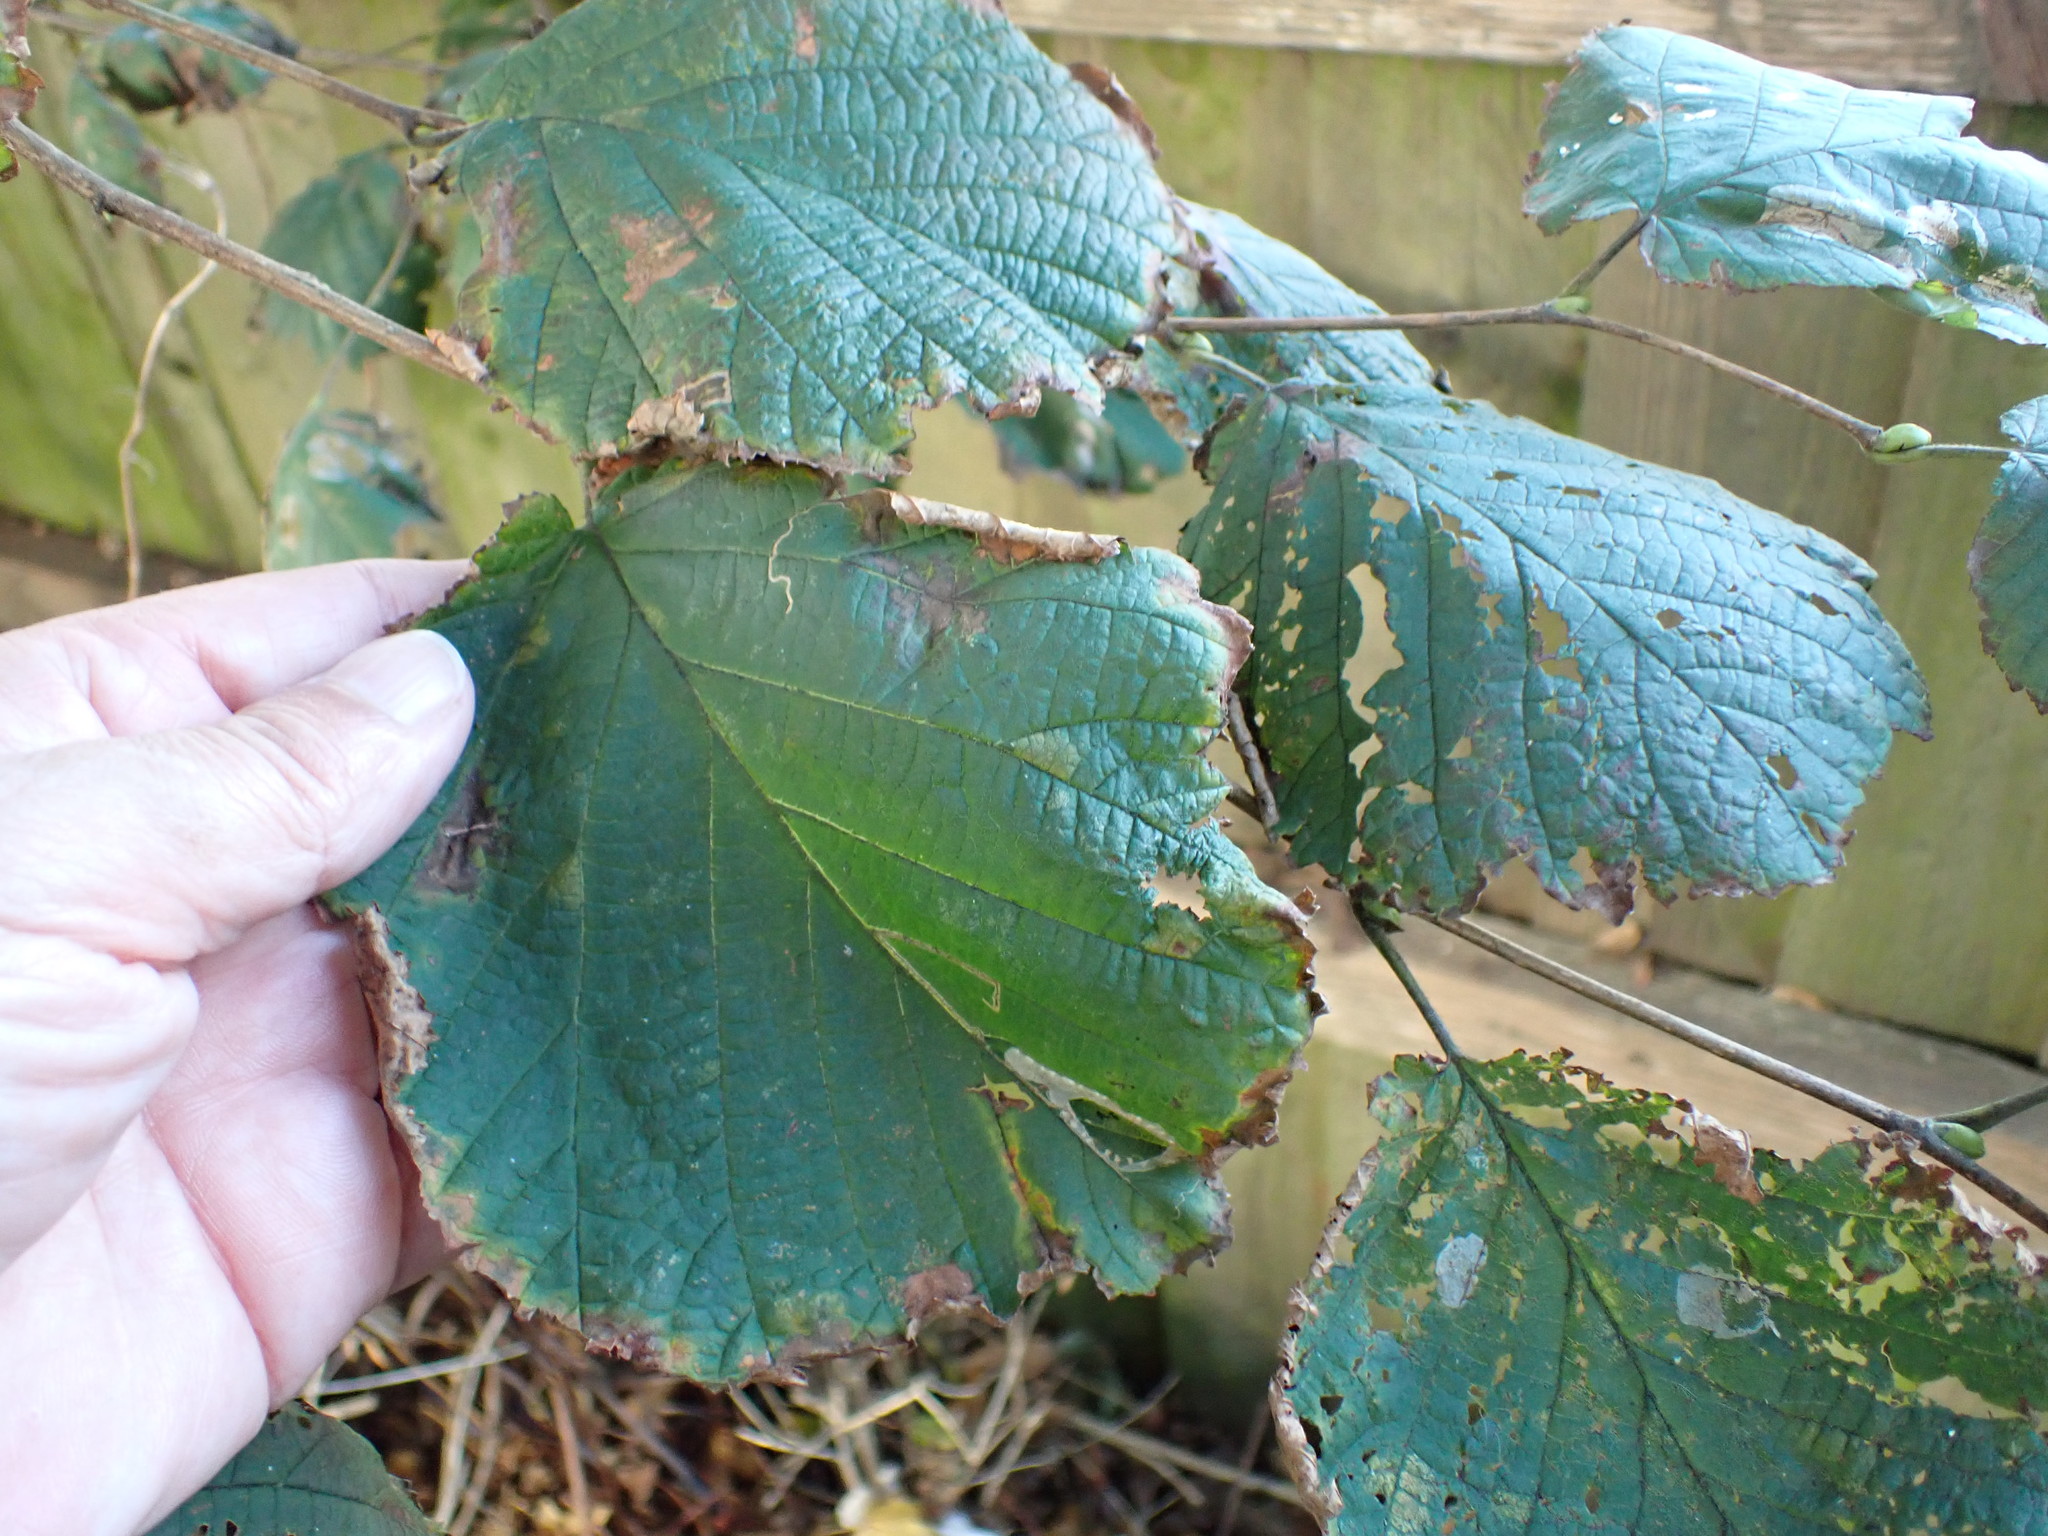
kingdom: Plantae
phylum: Tracheophyta
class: Magnoliopsida
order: Fagales
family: Betulaceae
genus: Corylus
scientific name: Corylus avellana
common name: European hazel
